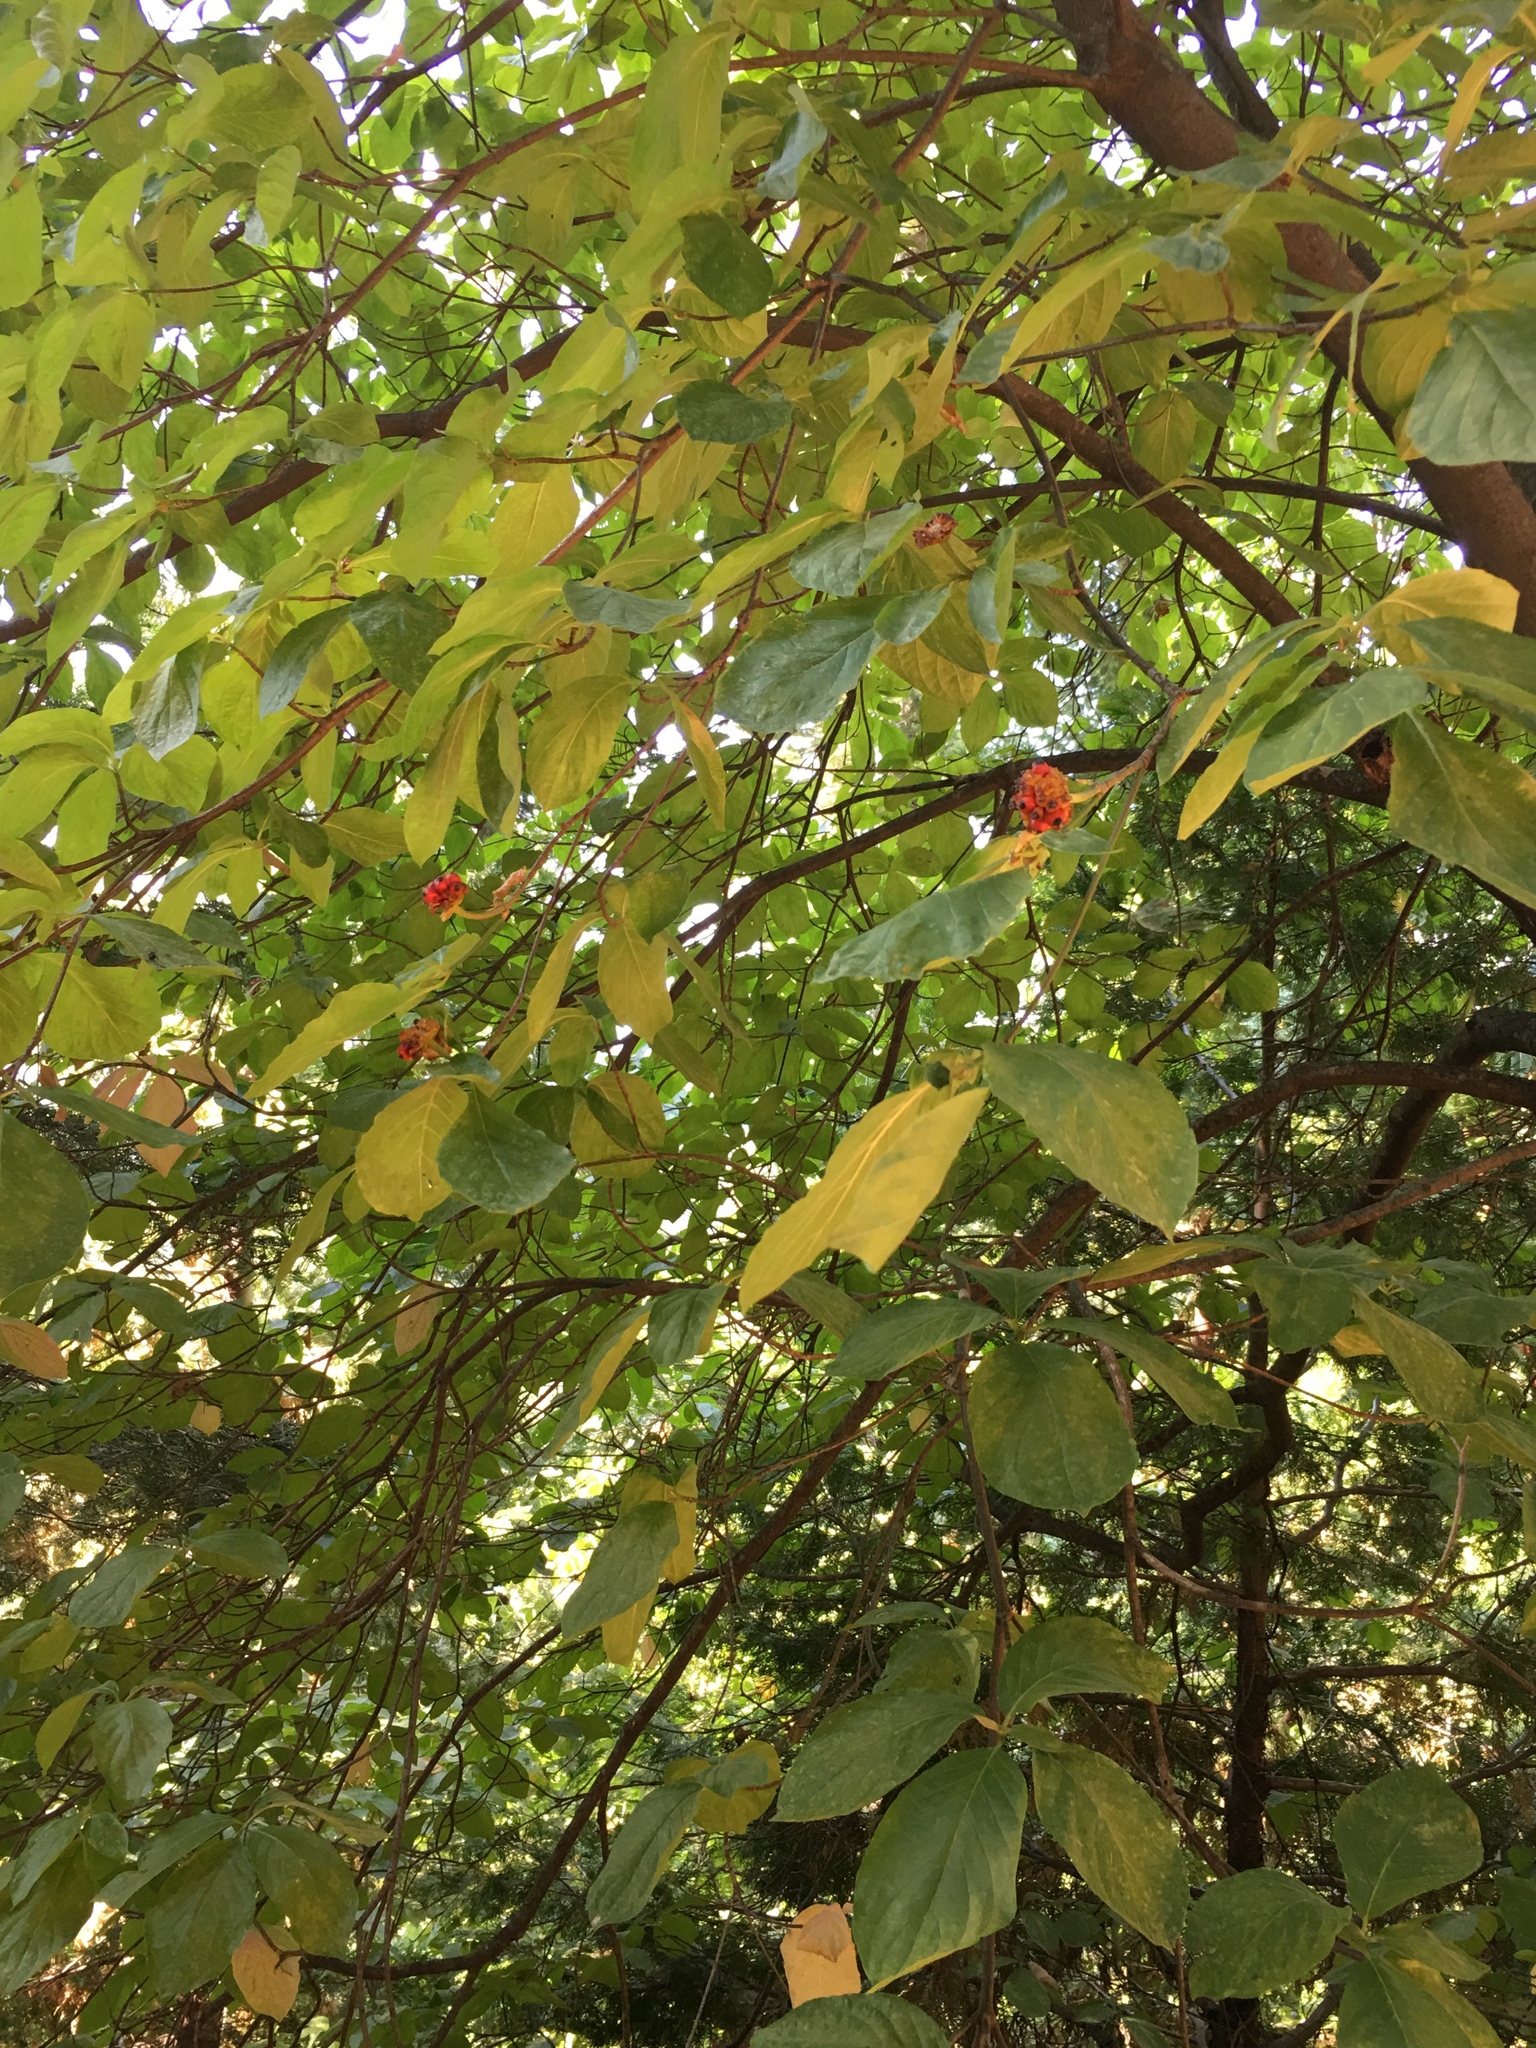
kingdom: Plantae
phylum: Tracheophyta
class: Magnoliopsida
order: Cornales
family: Cornaceae
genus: Cornus
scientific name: Cornus nuttallii
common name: Pacific dogwood
